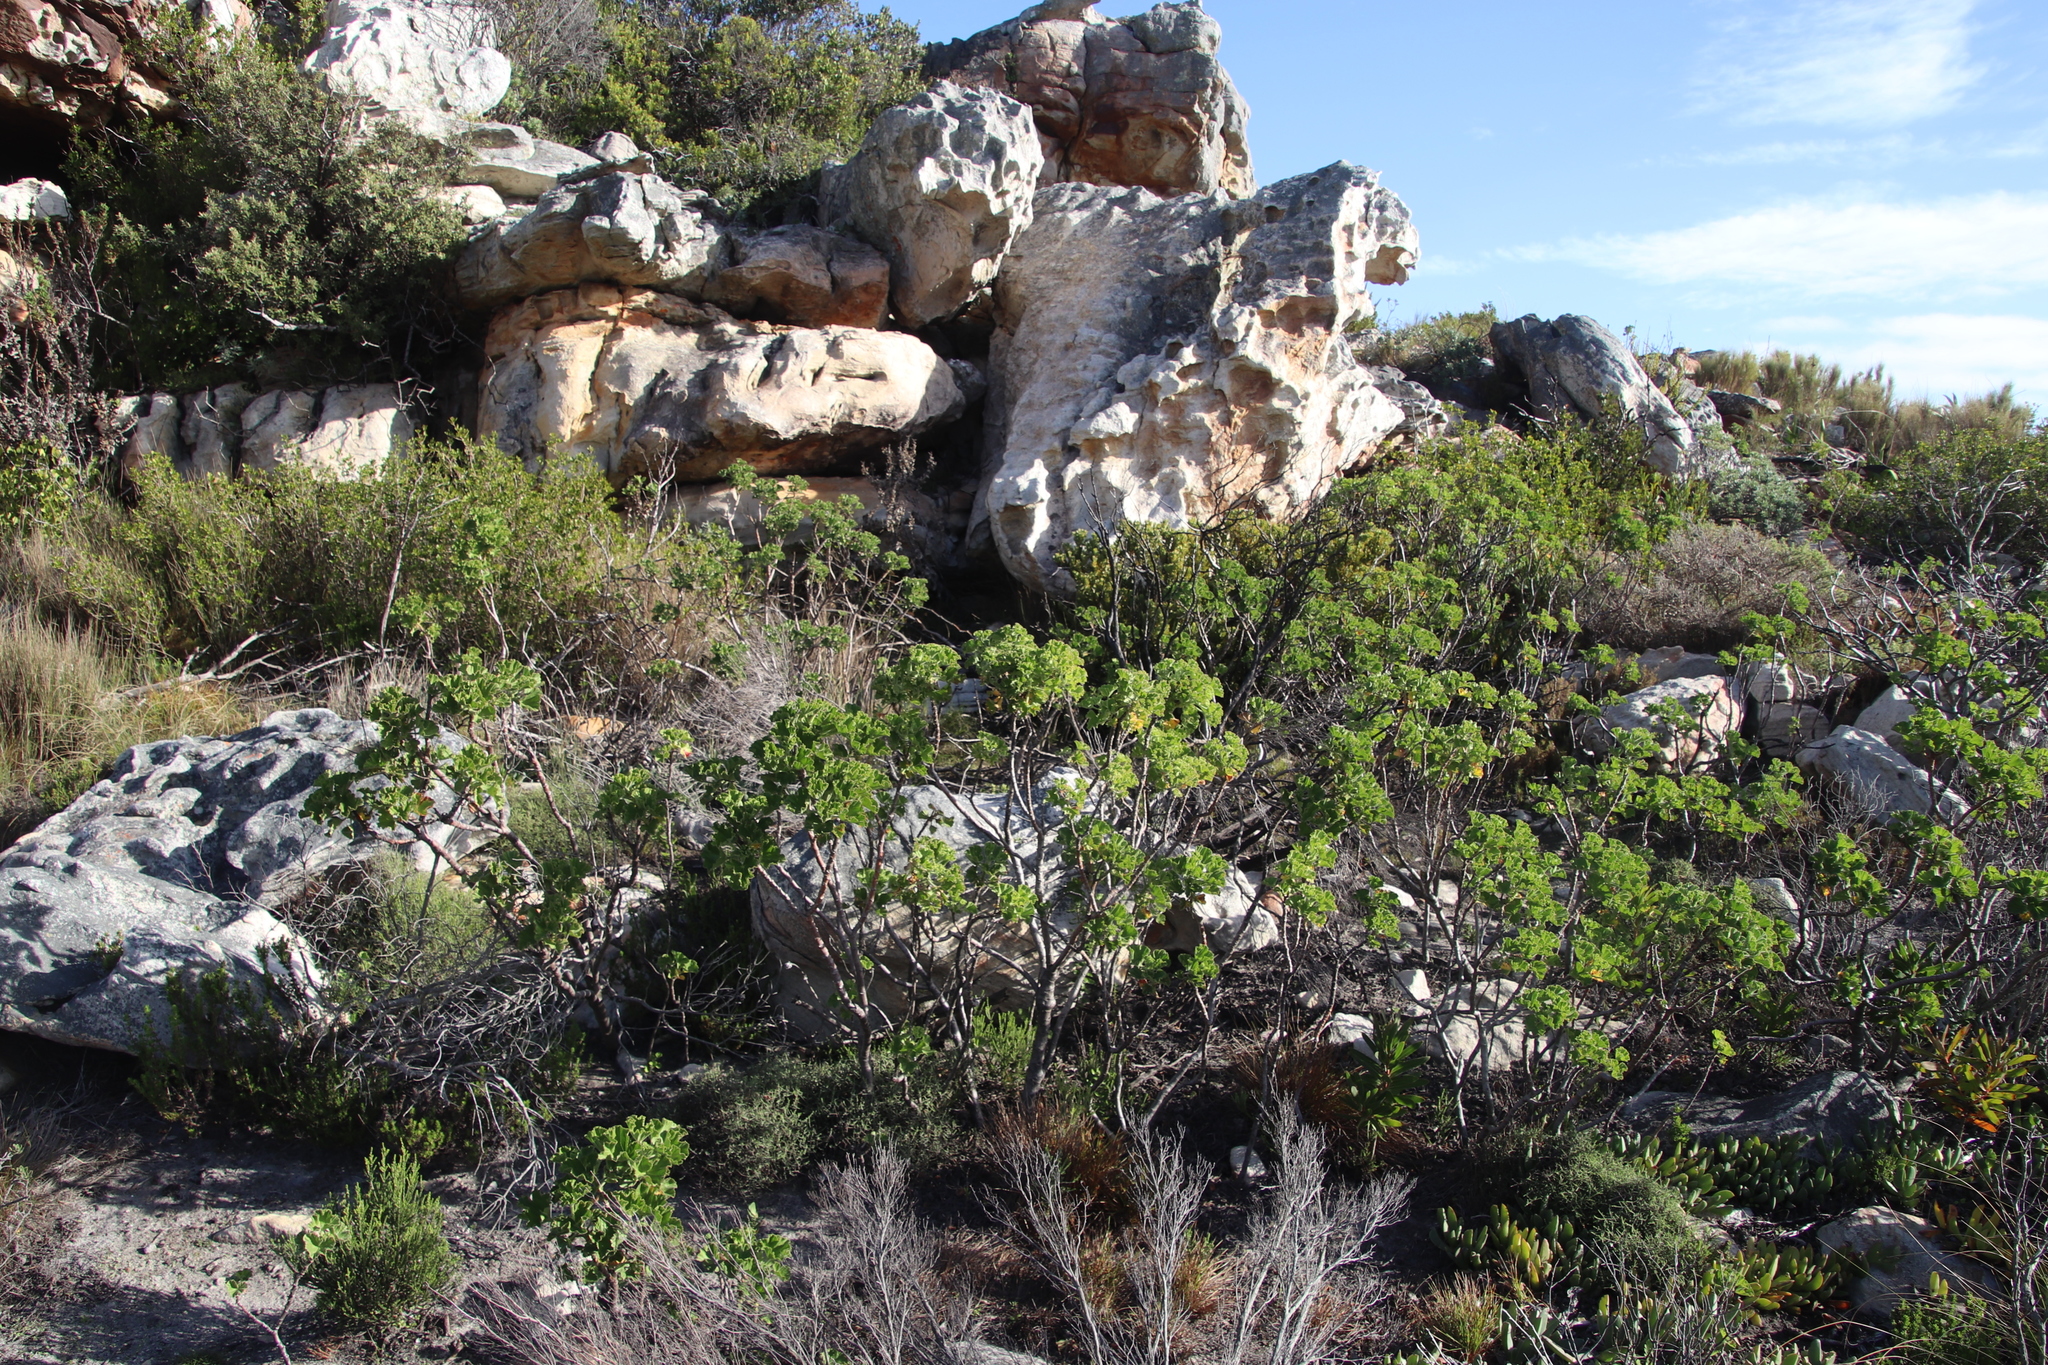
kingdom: Plantae
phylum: Tracheophyta
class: Magnoliopsida
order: Geraniales
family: Geraniaceae
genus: Pelargonium
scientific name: Pelargonium cucullatum
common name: Tree pelargonium
